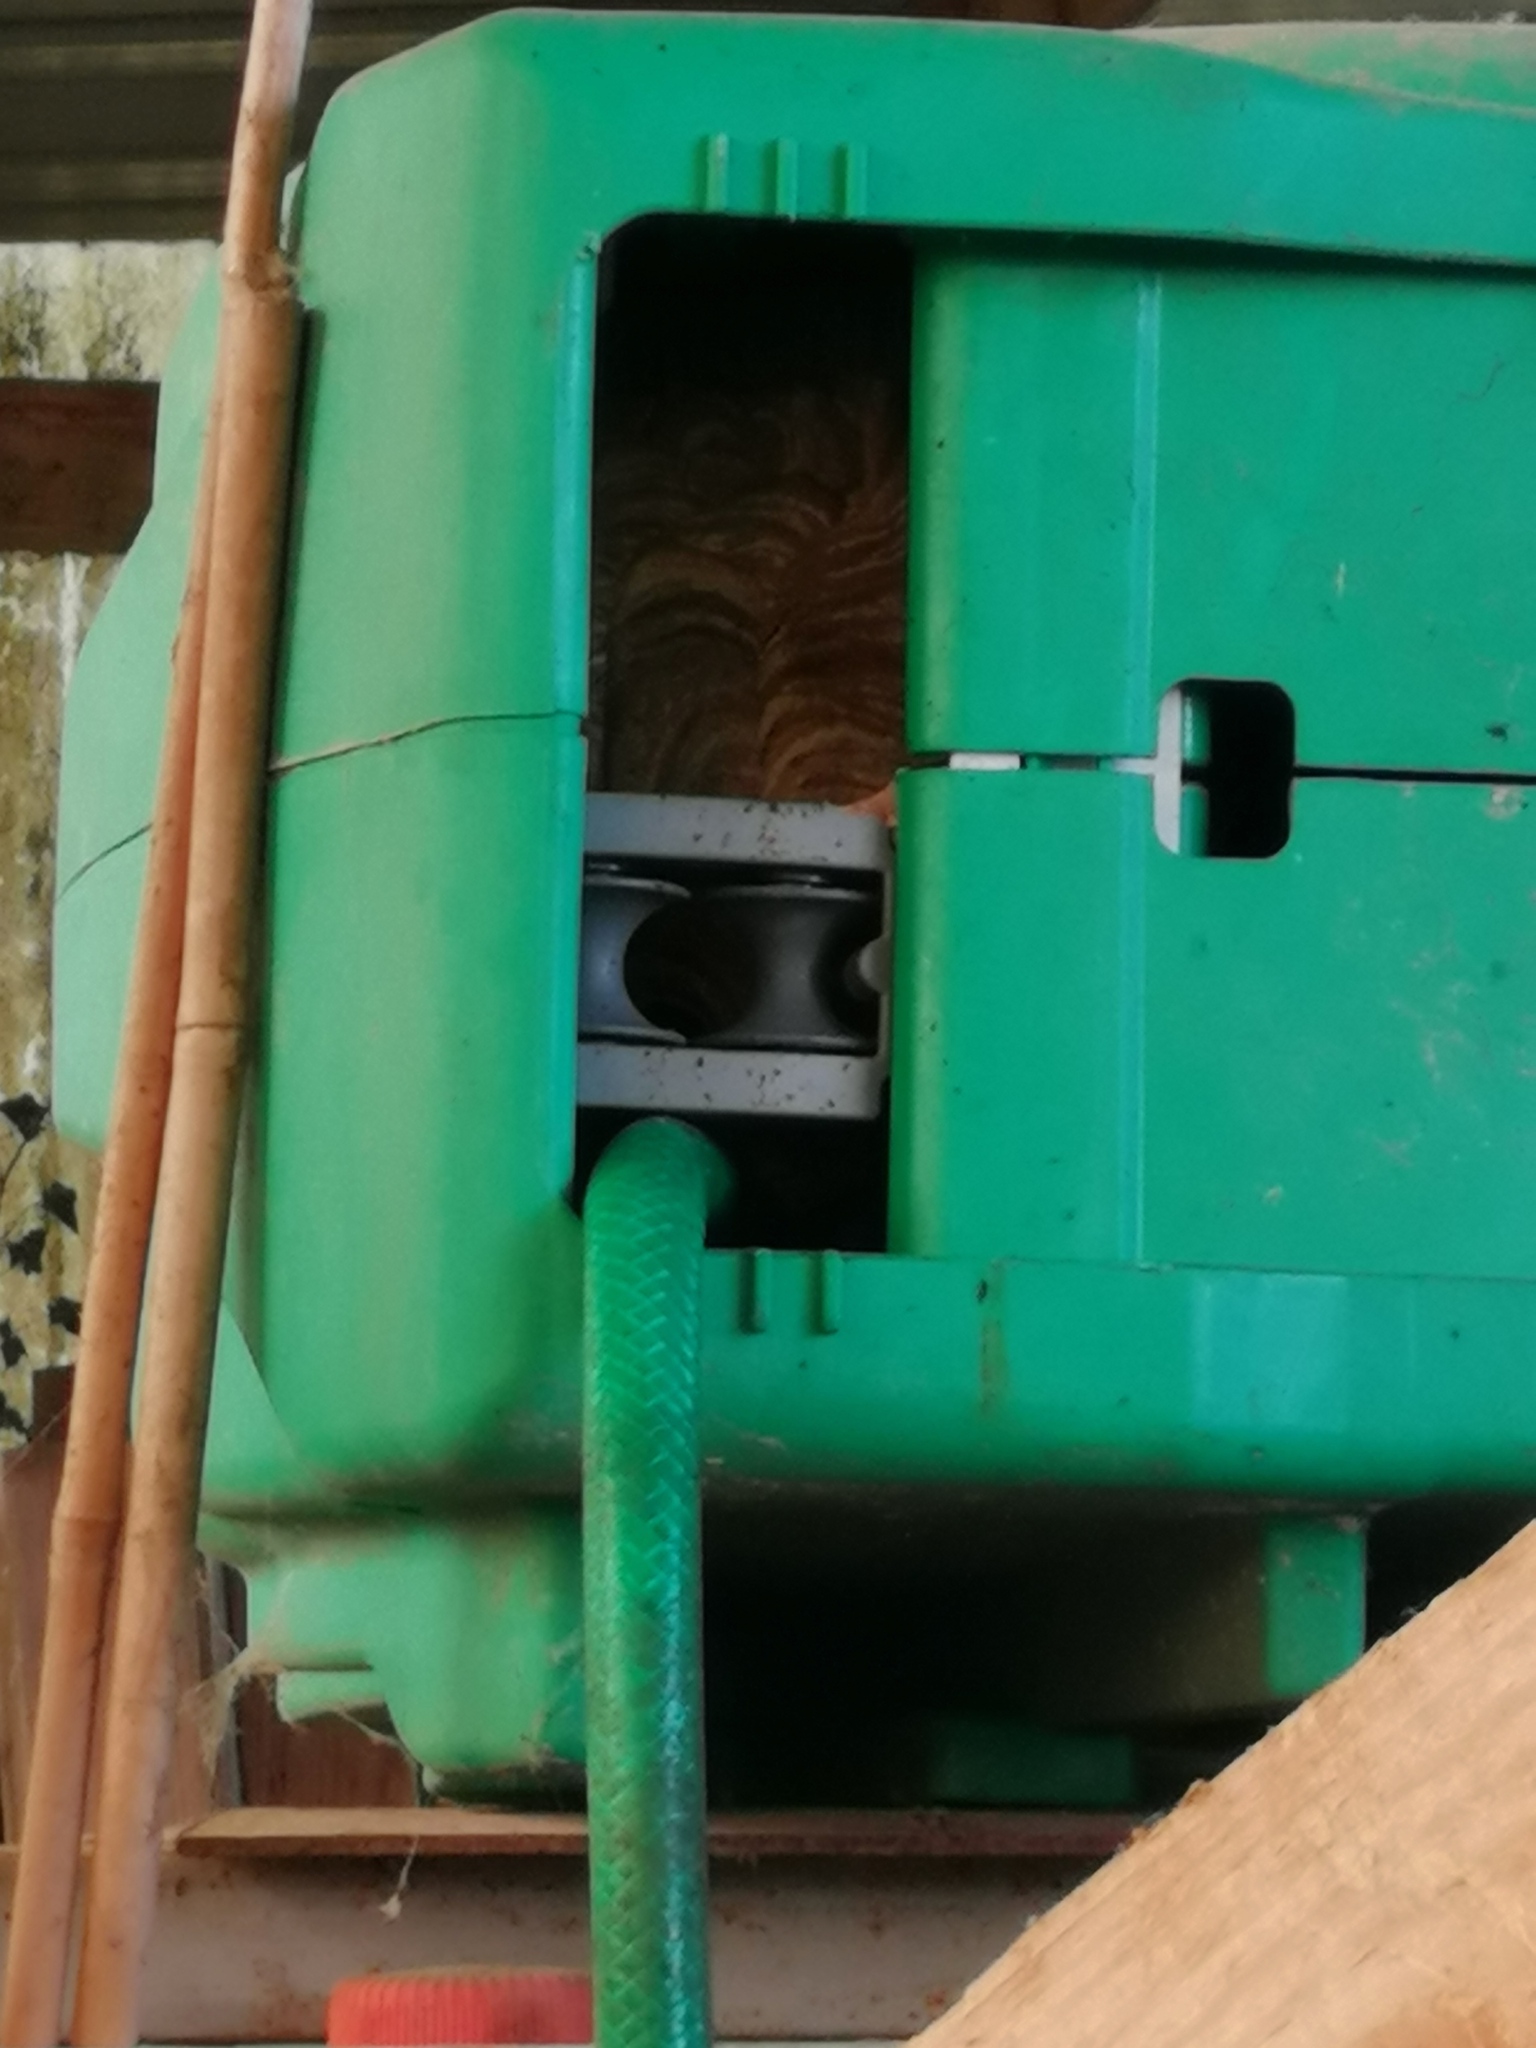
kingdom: Animalia
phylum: Arthropoda
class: Insecta
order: Hymenoptera
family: Vespidae
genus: Vespa
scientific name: Vespa velutina
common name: Asian hornet
